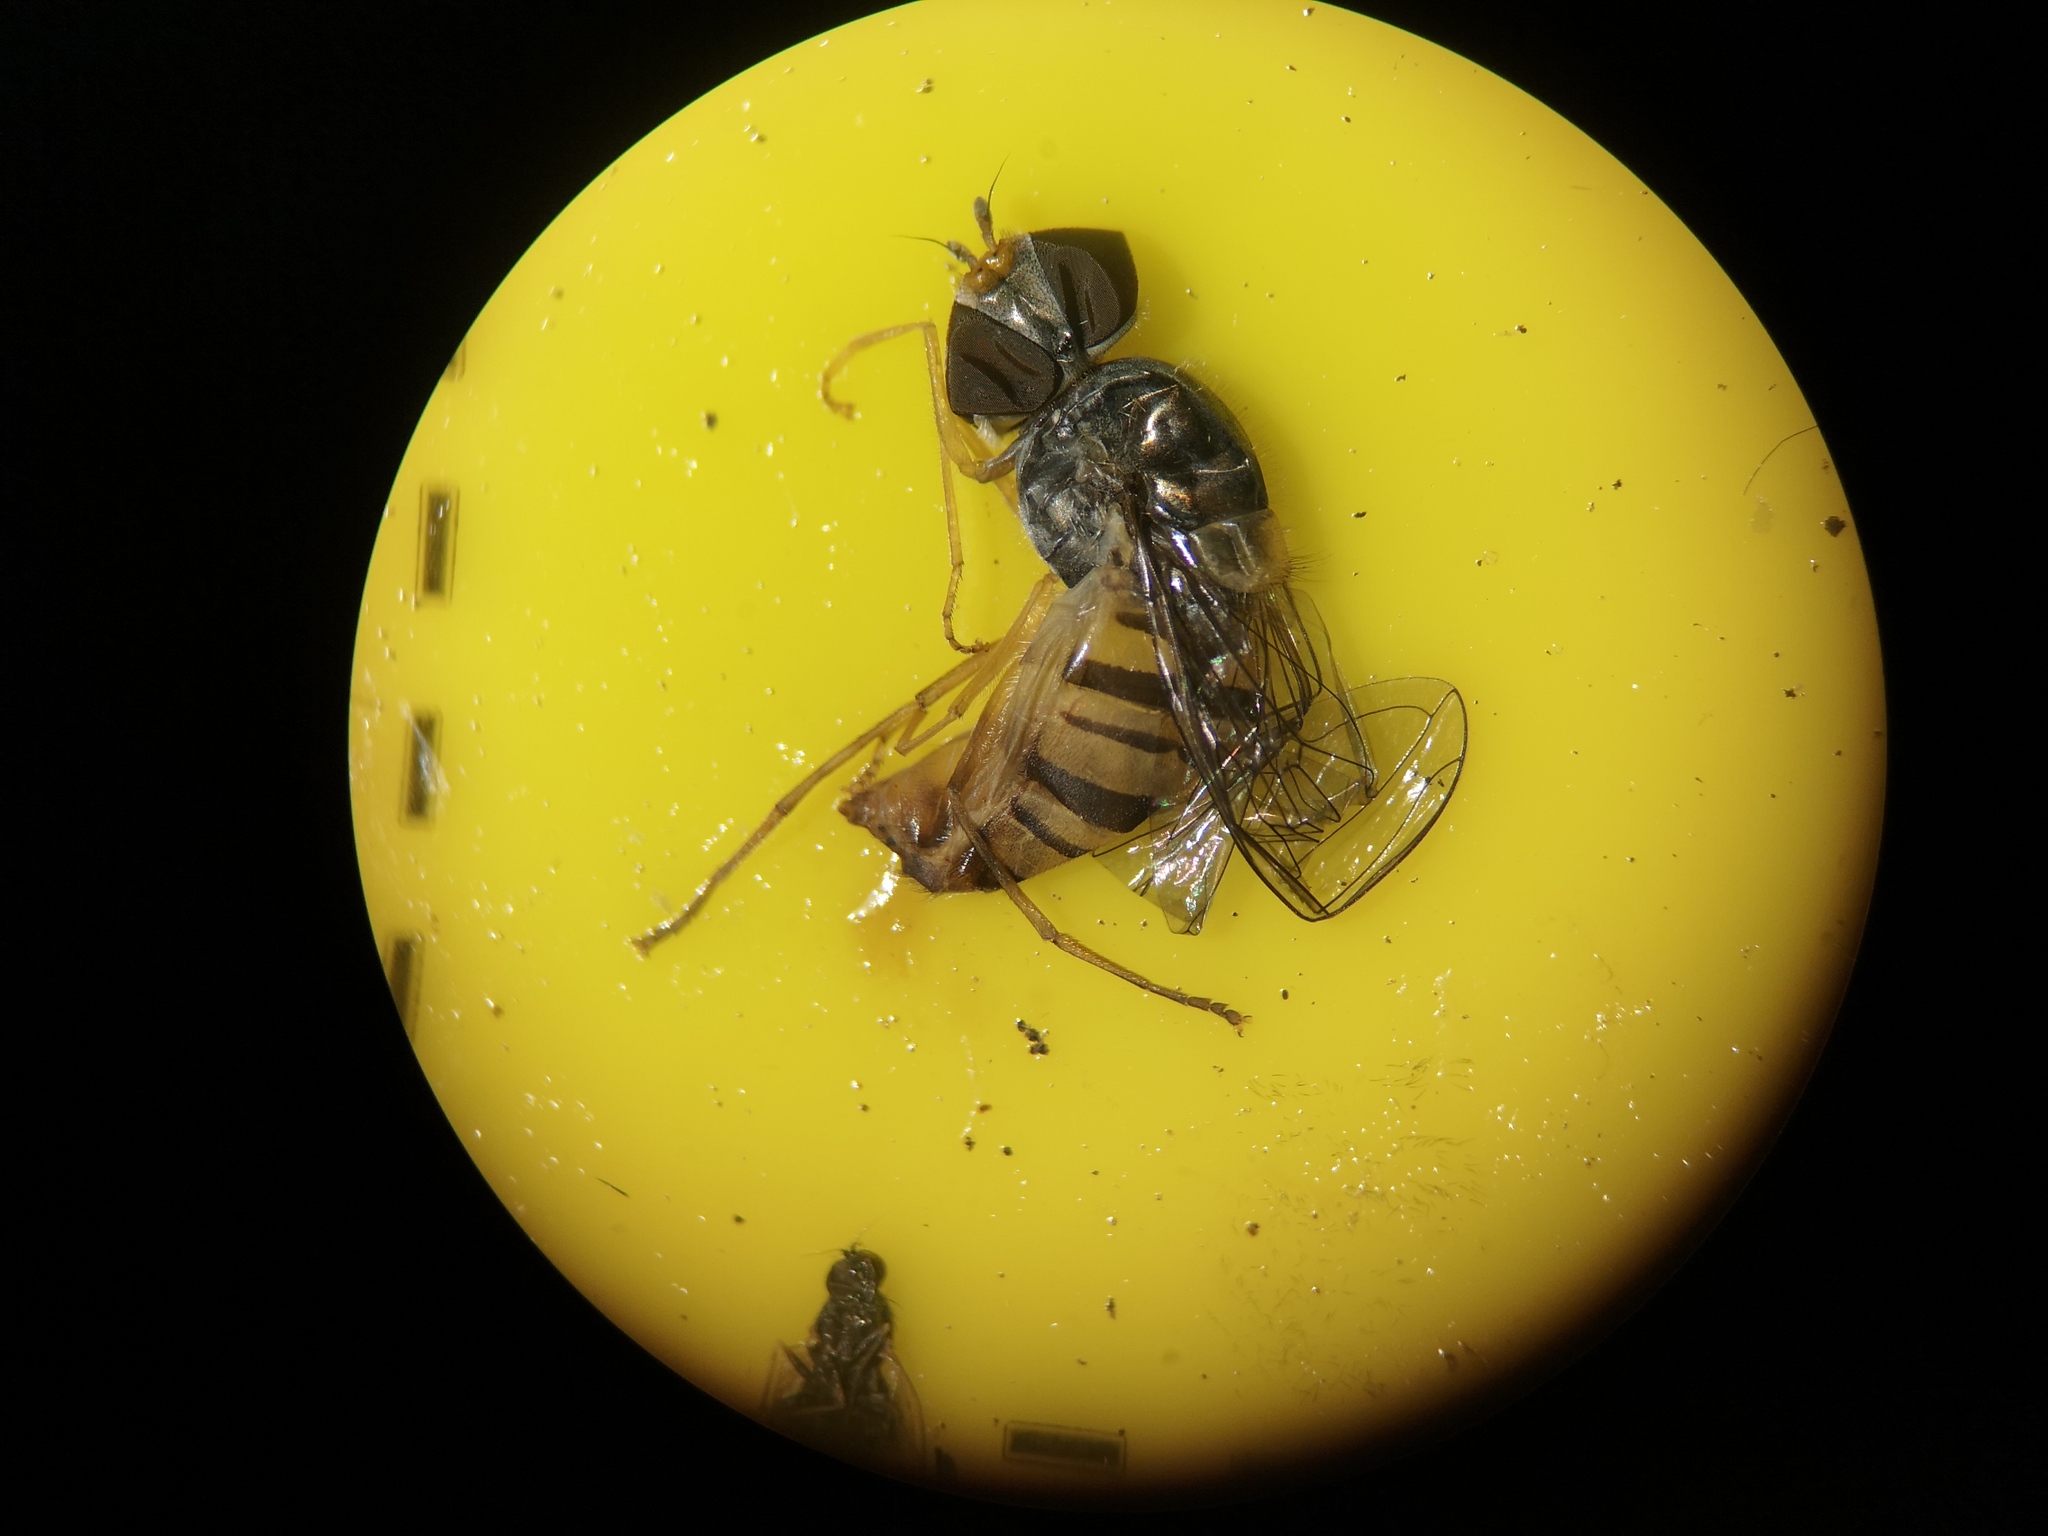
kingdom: Animalia
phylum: Arthropoda
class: Insecta
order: Diptera
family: Syrphidae
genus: Episyrphus
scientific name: Episyrphus balteatus
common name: Marmalade hoverfly
